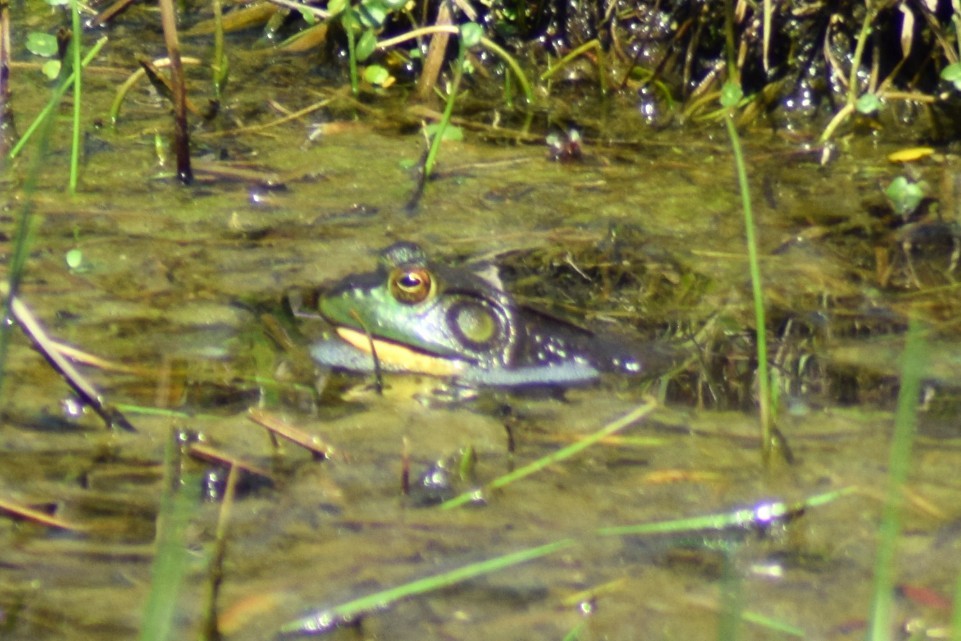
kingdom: Animalia
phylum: Chordata
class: Amphibia
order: Anura
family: Ranidae
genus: Lithobates
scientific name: Lithobates catesbeianus
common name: American bullfrog
